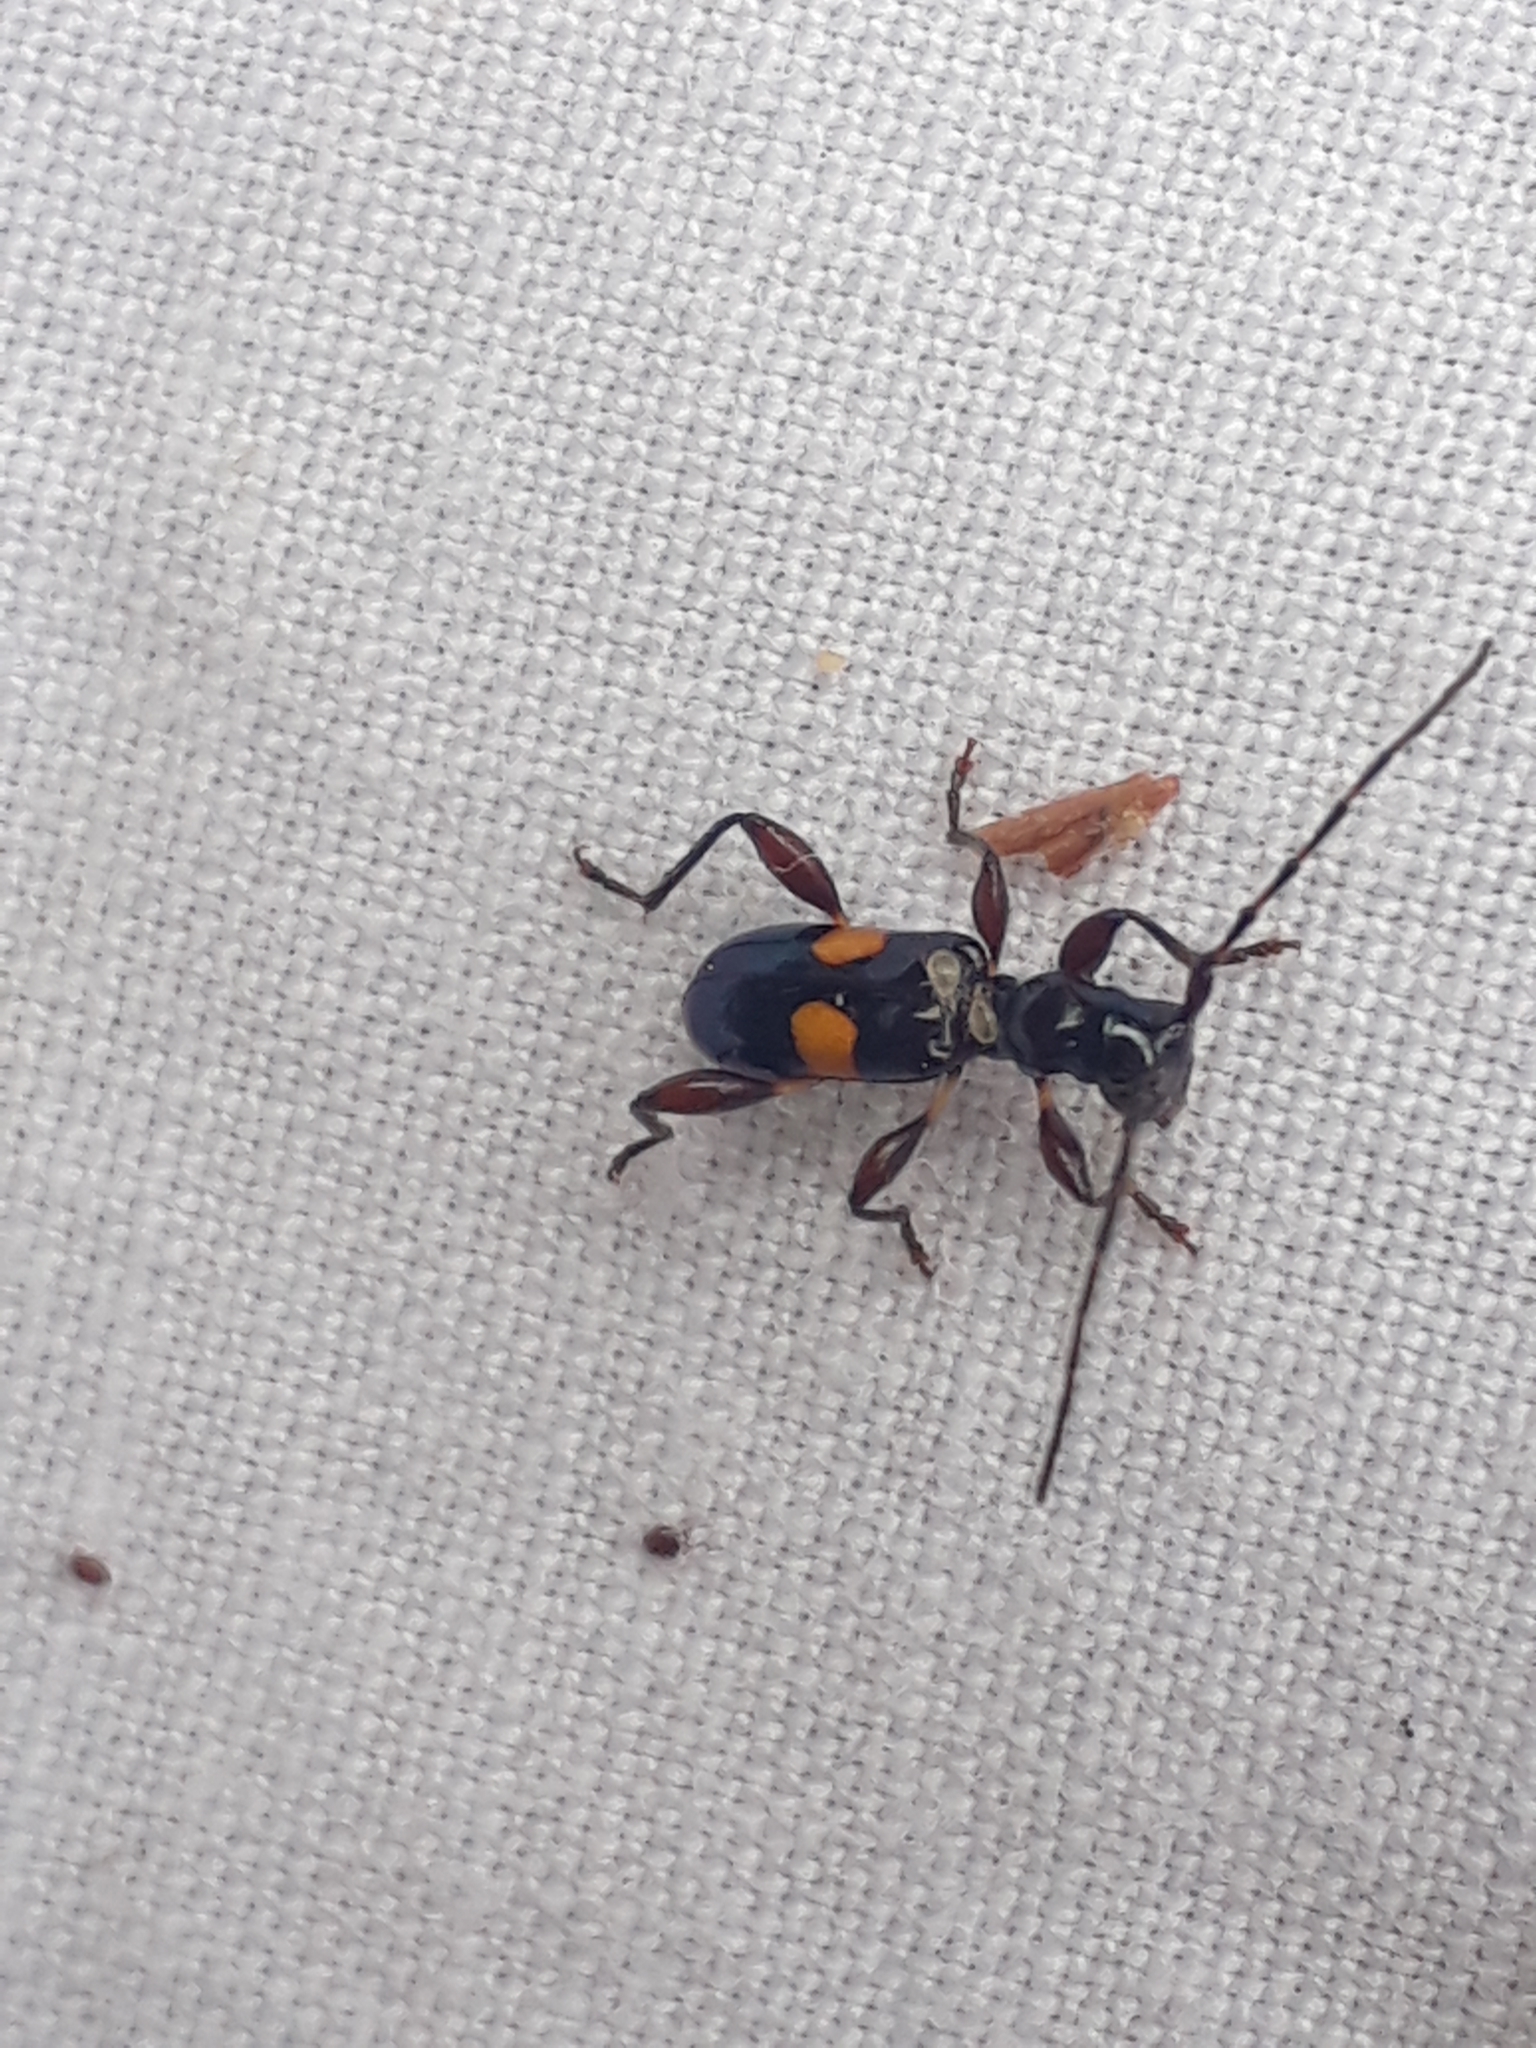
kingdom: Animalia
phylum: Arthropoda
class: Insecta
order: Coleoptera
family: Cerambycidae
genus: Zorion
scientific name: Zorion guttigerum
